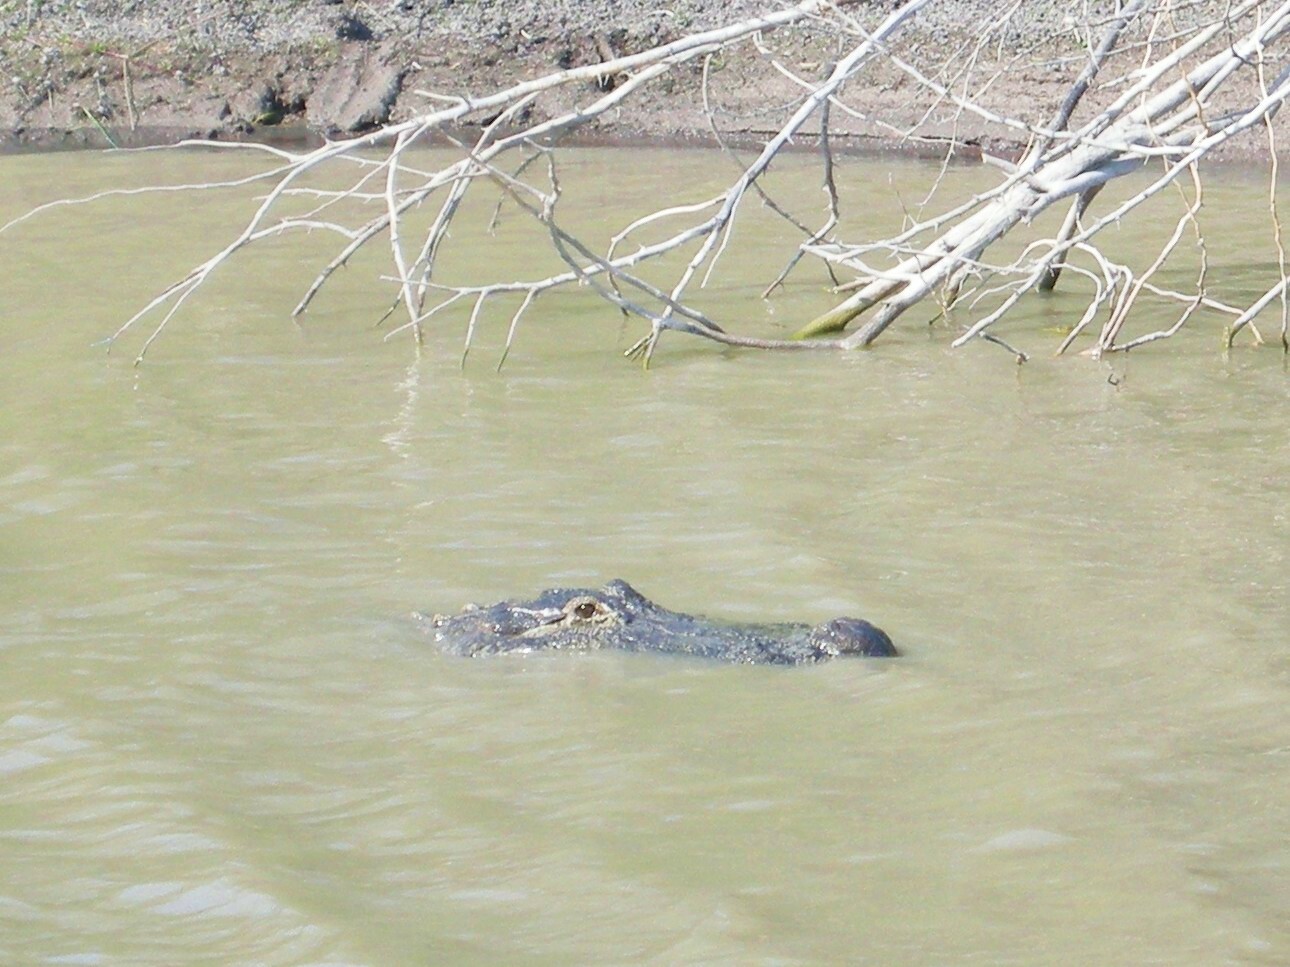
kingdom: Animalia
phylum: Chordata
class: Crocodylia
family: Alligatoridae
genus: Alligator
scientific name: Alligator mississippiensis
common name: American alligator
